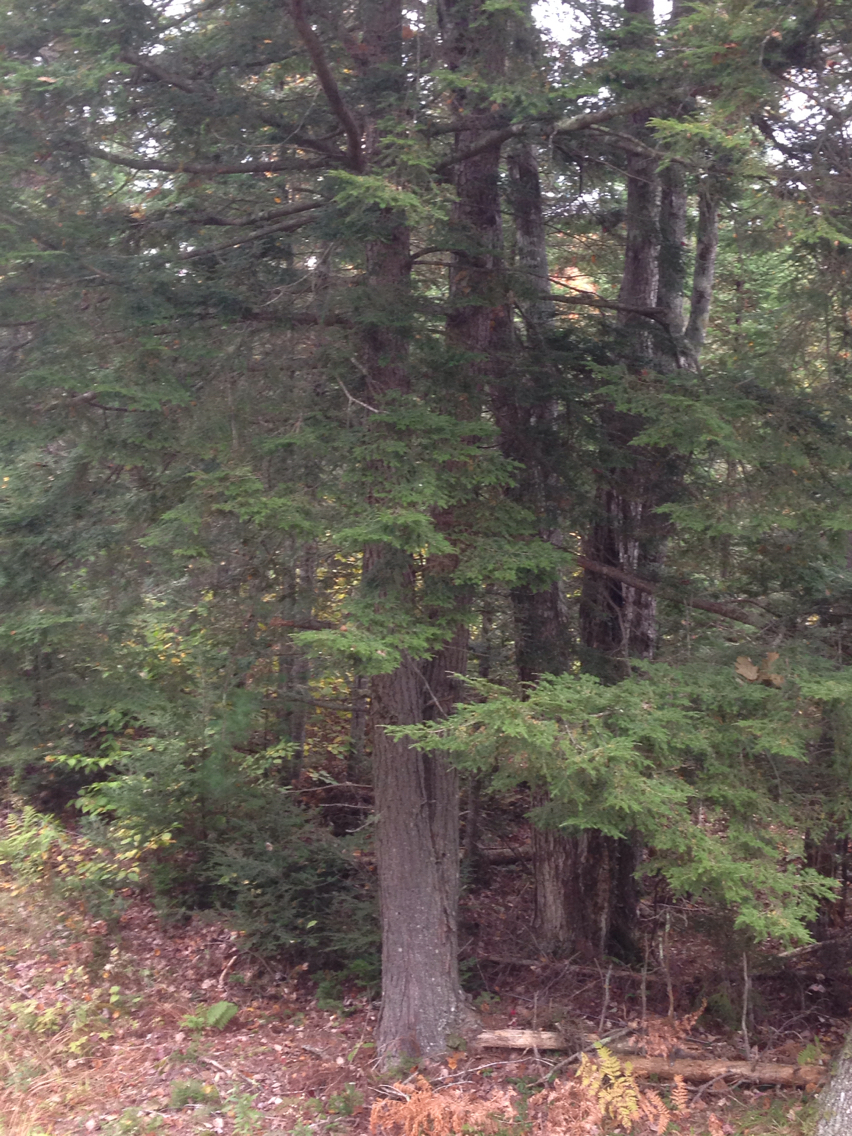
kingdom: Plantae
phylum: Tracheophyta
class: Pinopsida
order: Pinales
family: Pinaceae
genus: Tsuga
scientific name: Tsuga canadensis
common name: Eastern hemlock
